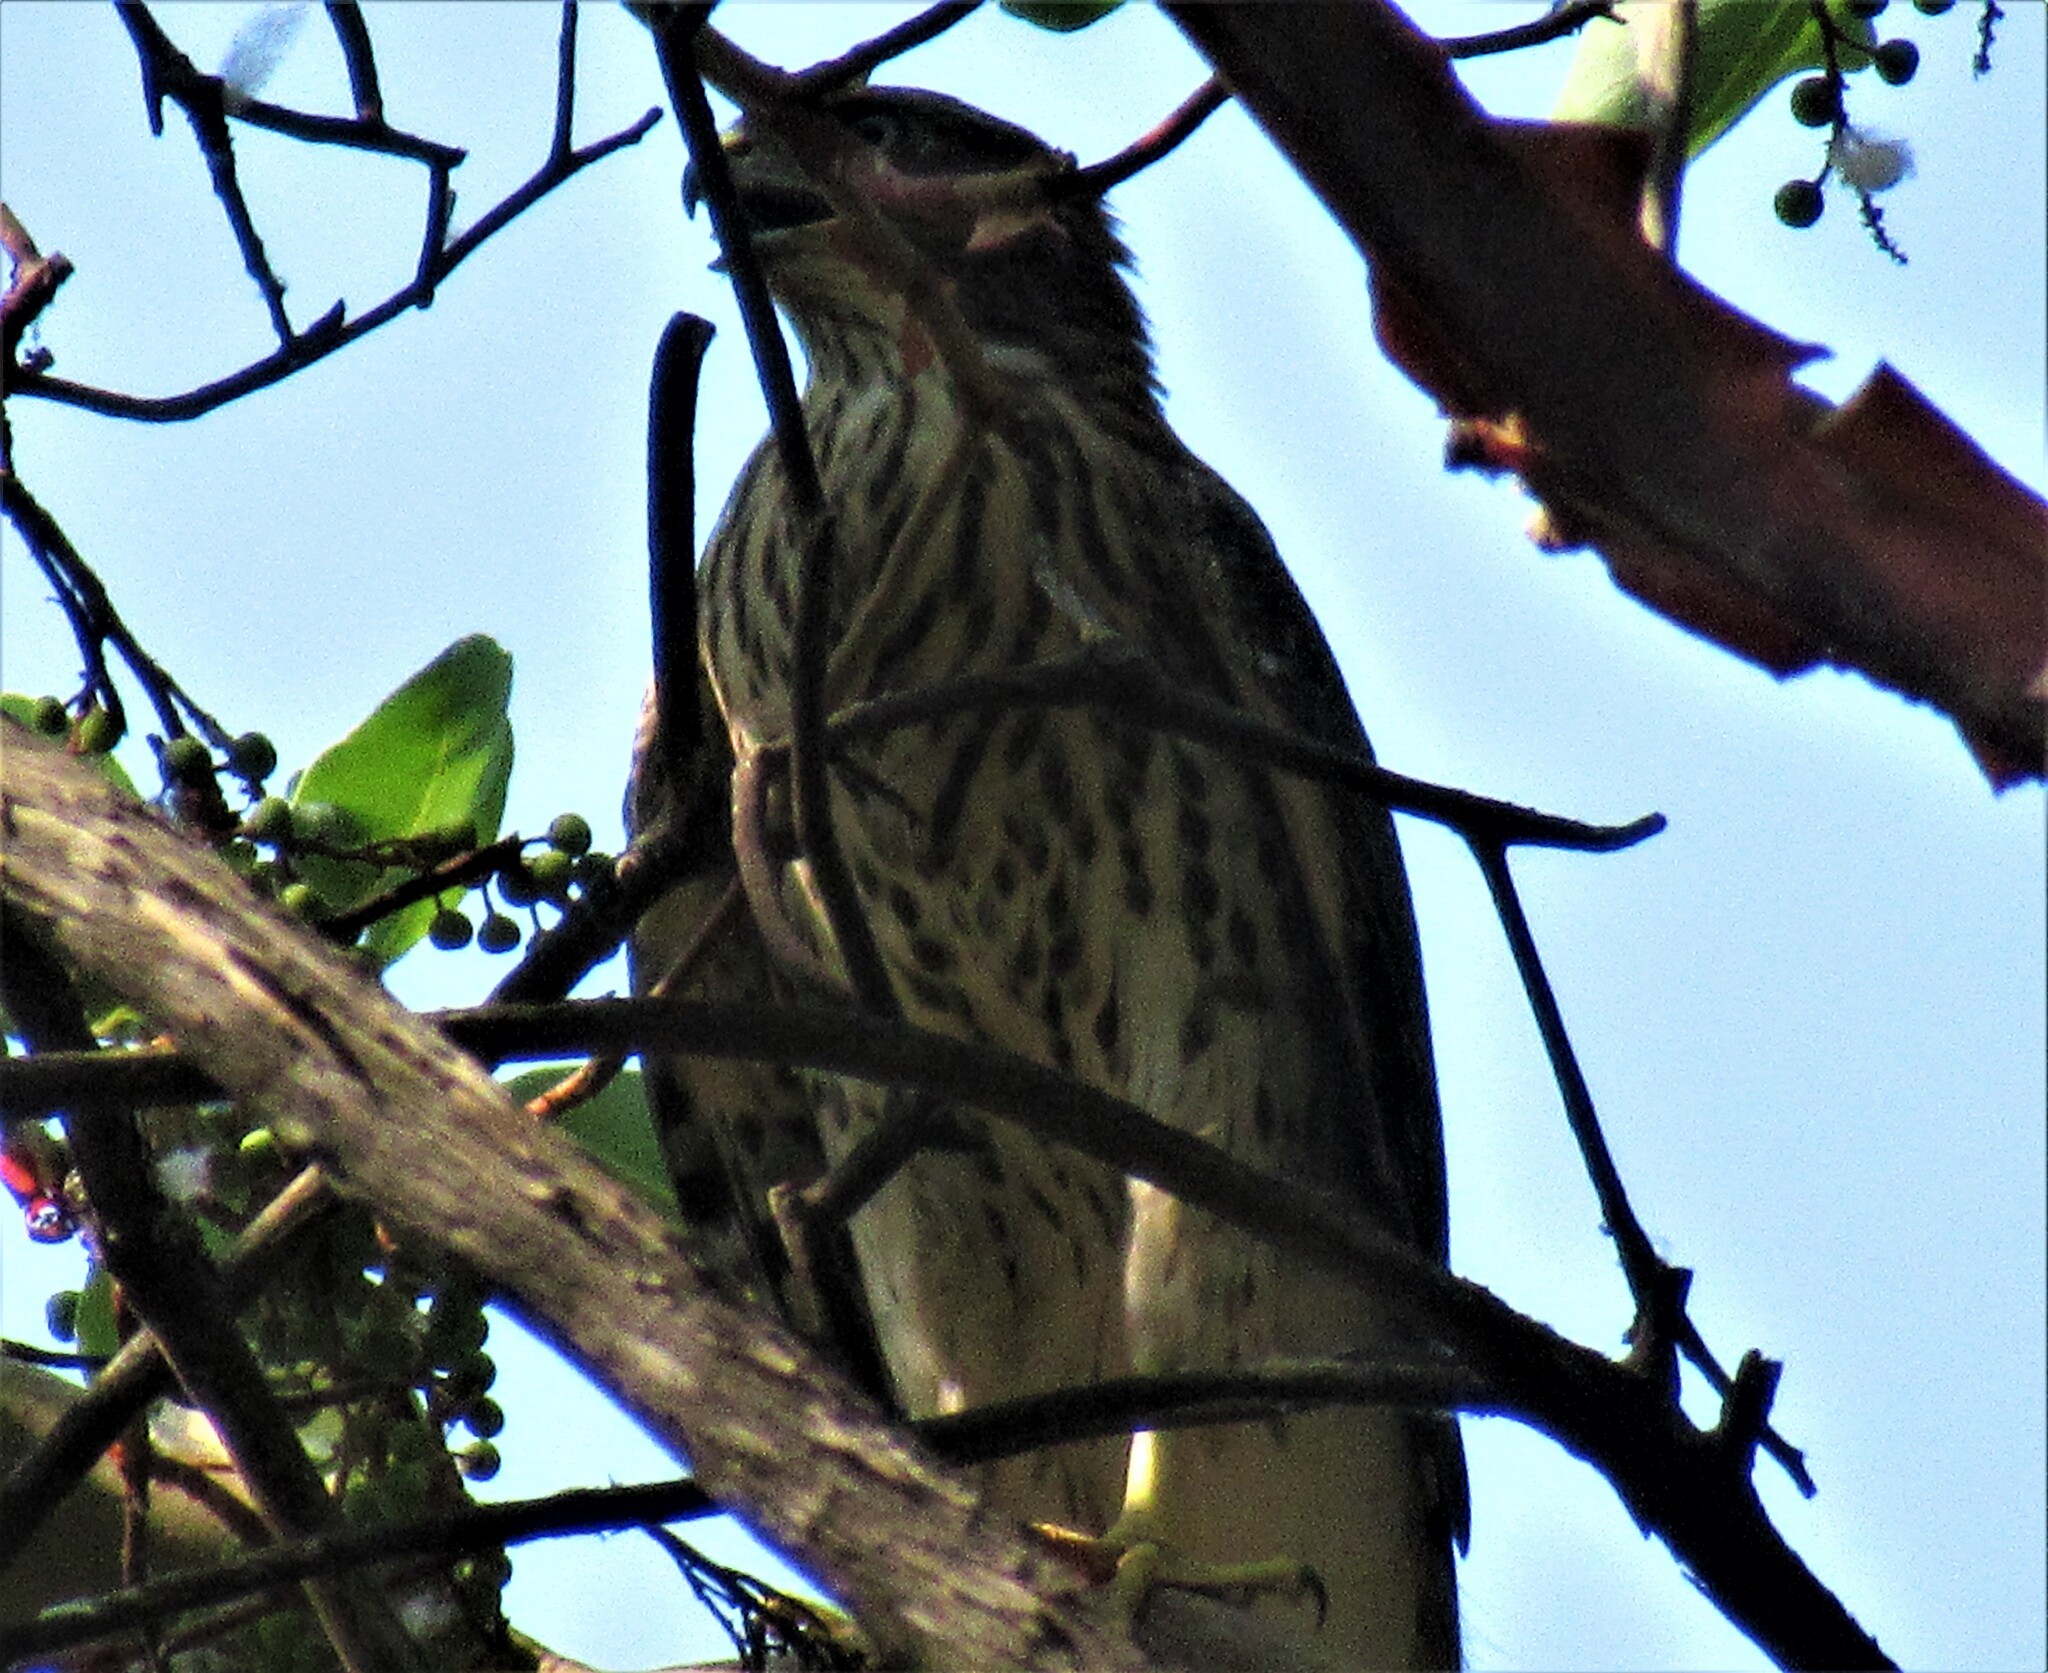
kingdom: Animalia
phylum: Chordata
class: Aves
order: Accipitriformes
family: Accipitridae
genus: Accipiter
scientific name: Accipiter cooperii
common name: Cooper's hawk
